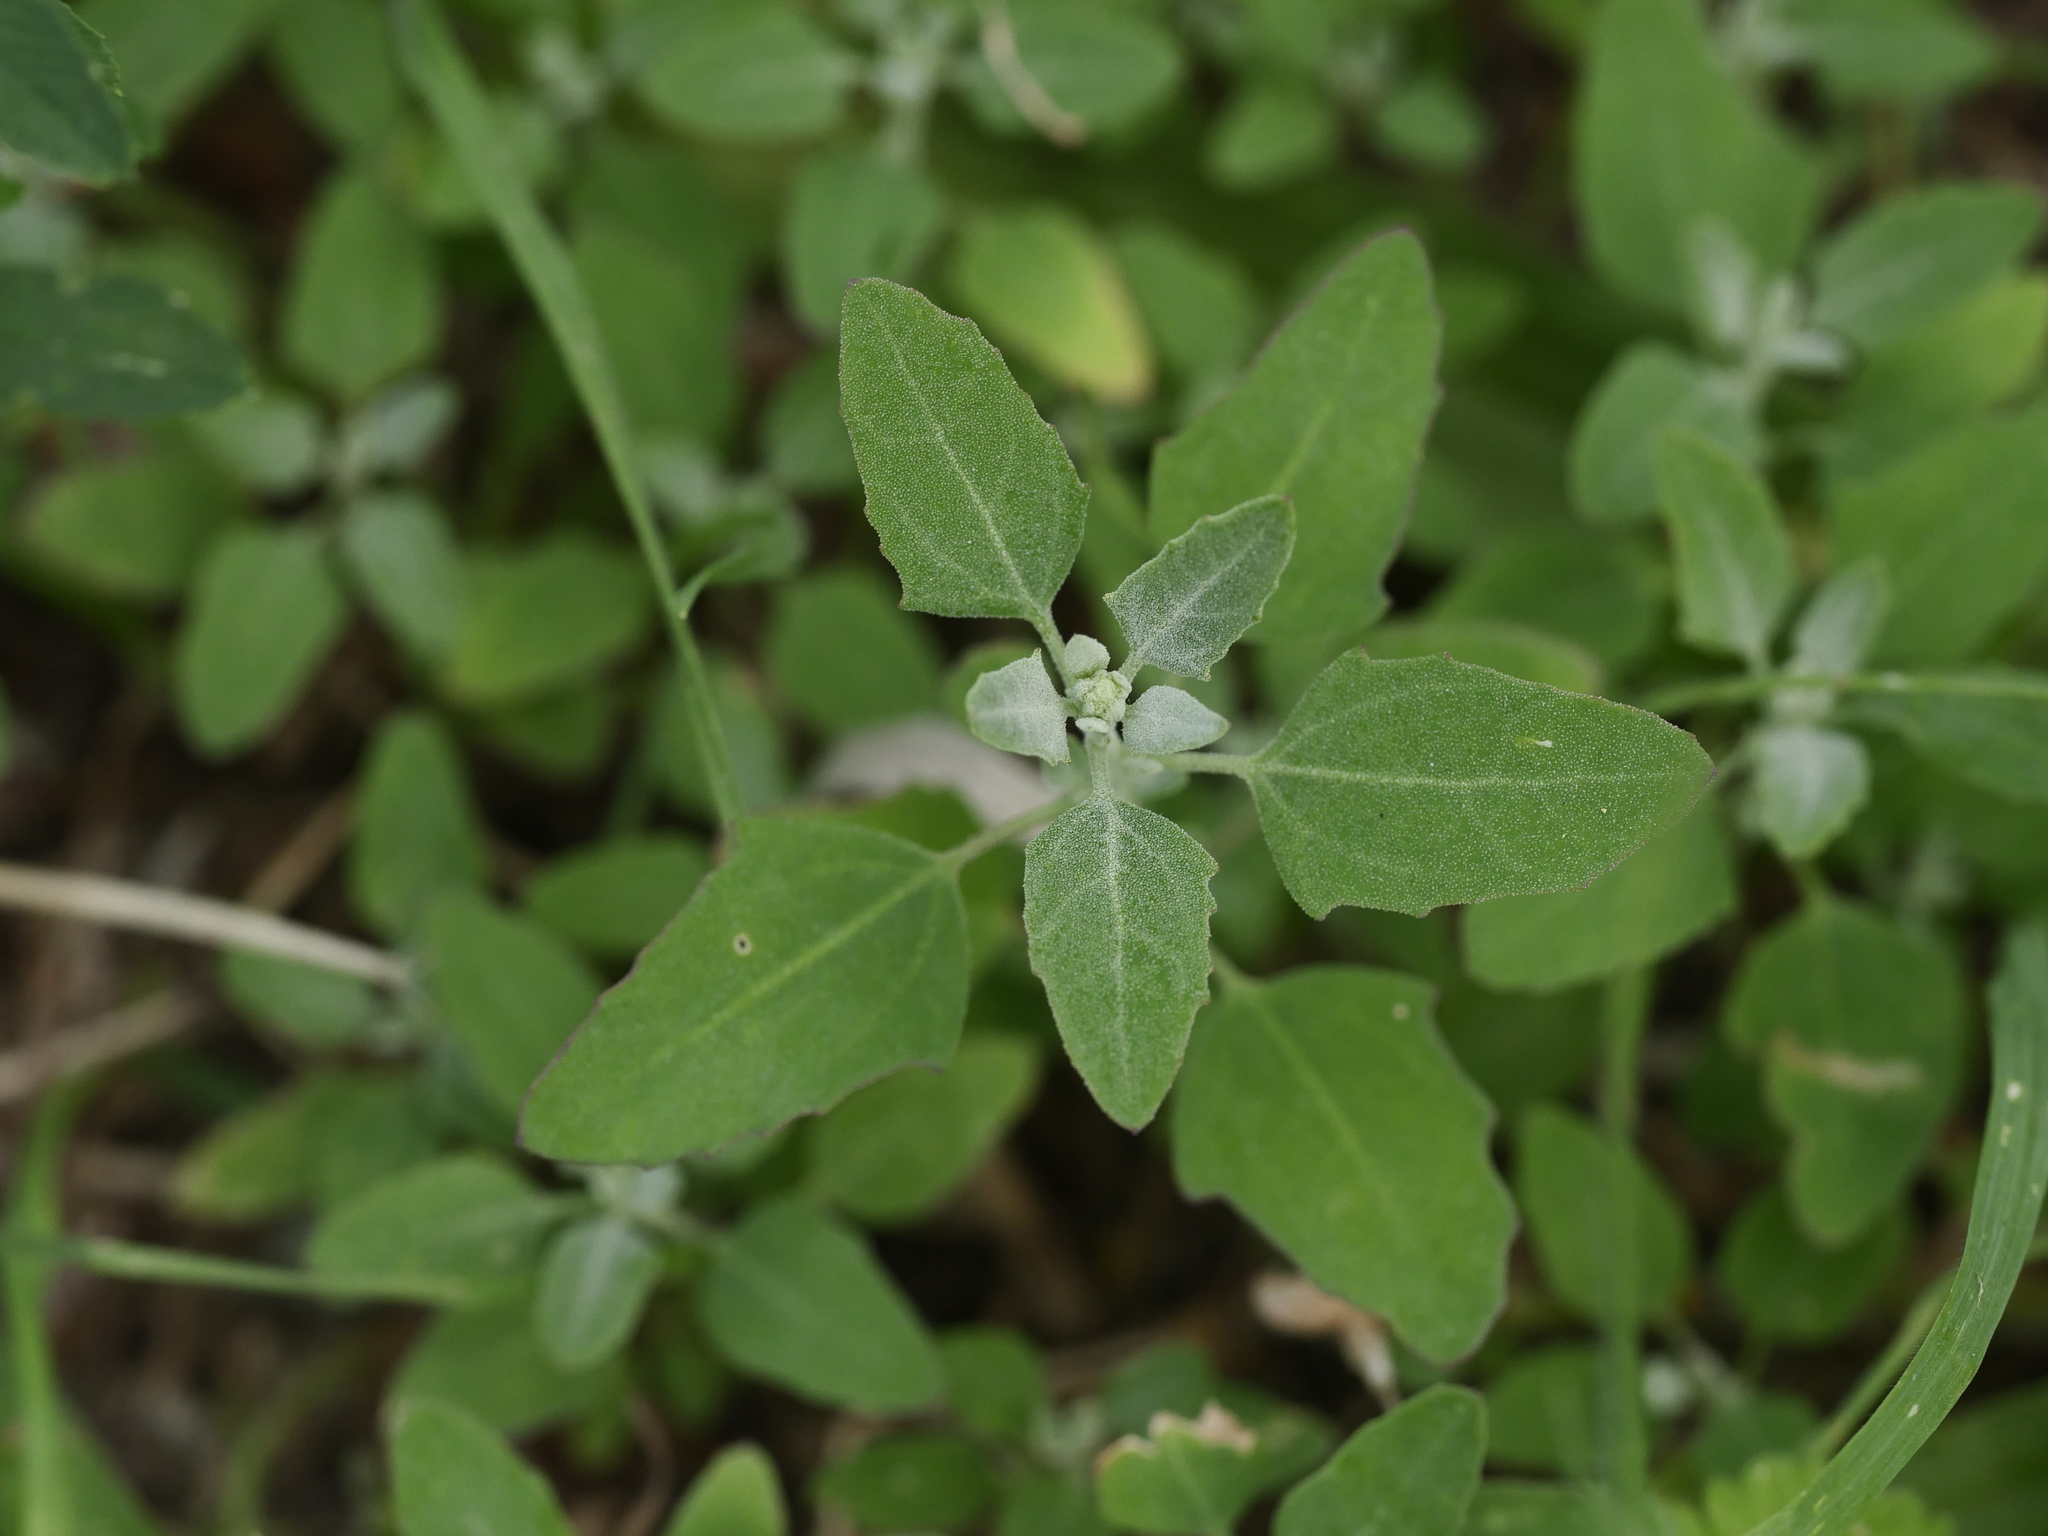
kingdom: Plantae
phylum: Tracheophyta
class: Magnoliopsida
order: Caryophyllales
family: Amaranthaceae
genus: Chenopodium
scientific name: Chenopodium album
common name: Fat-hen
